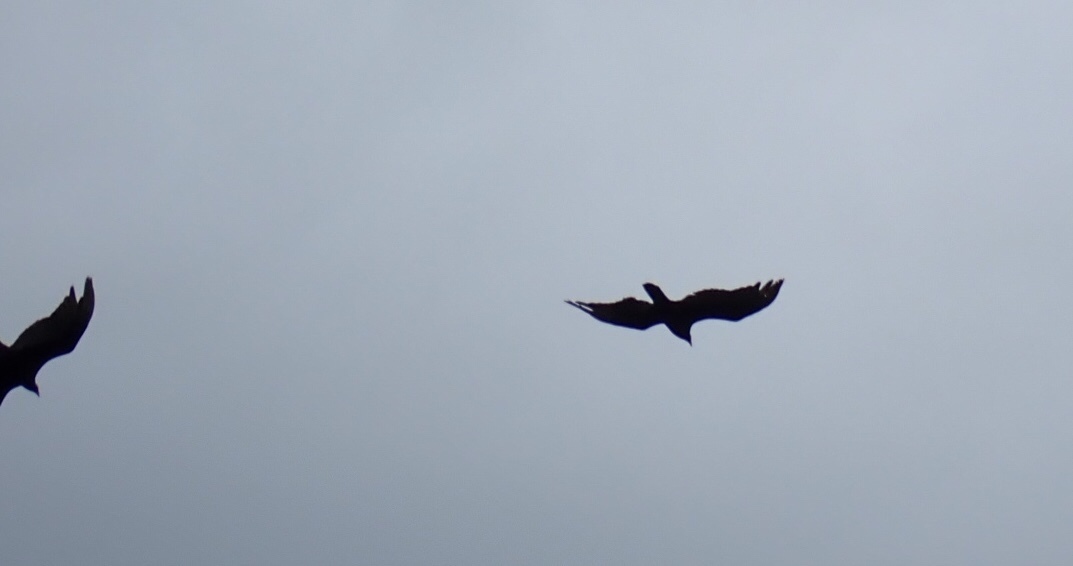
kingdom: Animalia
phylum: Chordata
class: Aves
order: Accipitriformes
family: Cathartidae
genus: Cathartes
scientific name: Cathartes aura
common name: Turkey vulture
